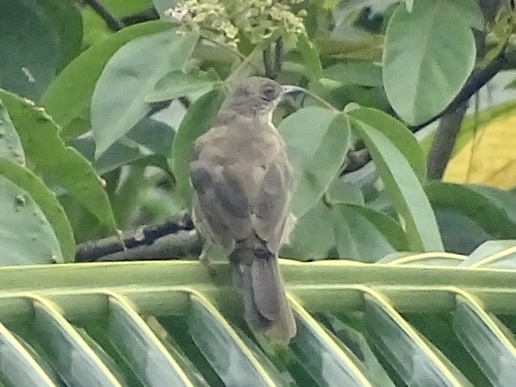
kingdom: Animalia
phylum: Chordata
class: Aves
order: Passeriformes
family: Pycnonotidae
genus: Pycnonotus
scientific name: Pycnonotus plumosus
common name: Olive-winged bulbul
